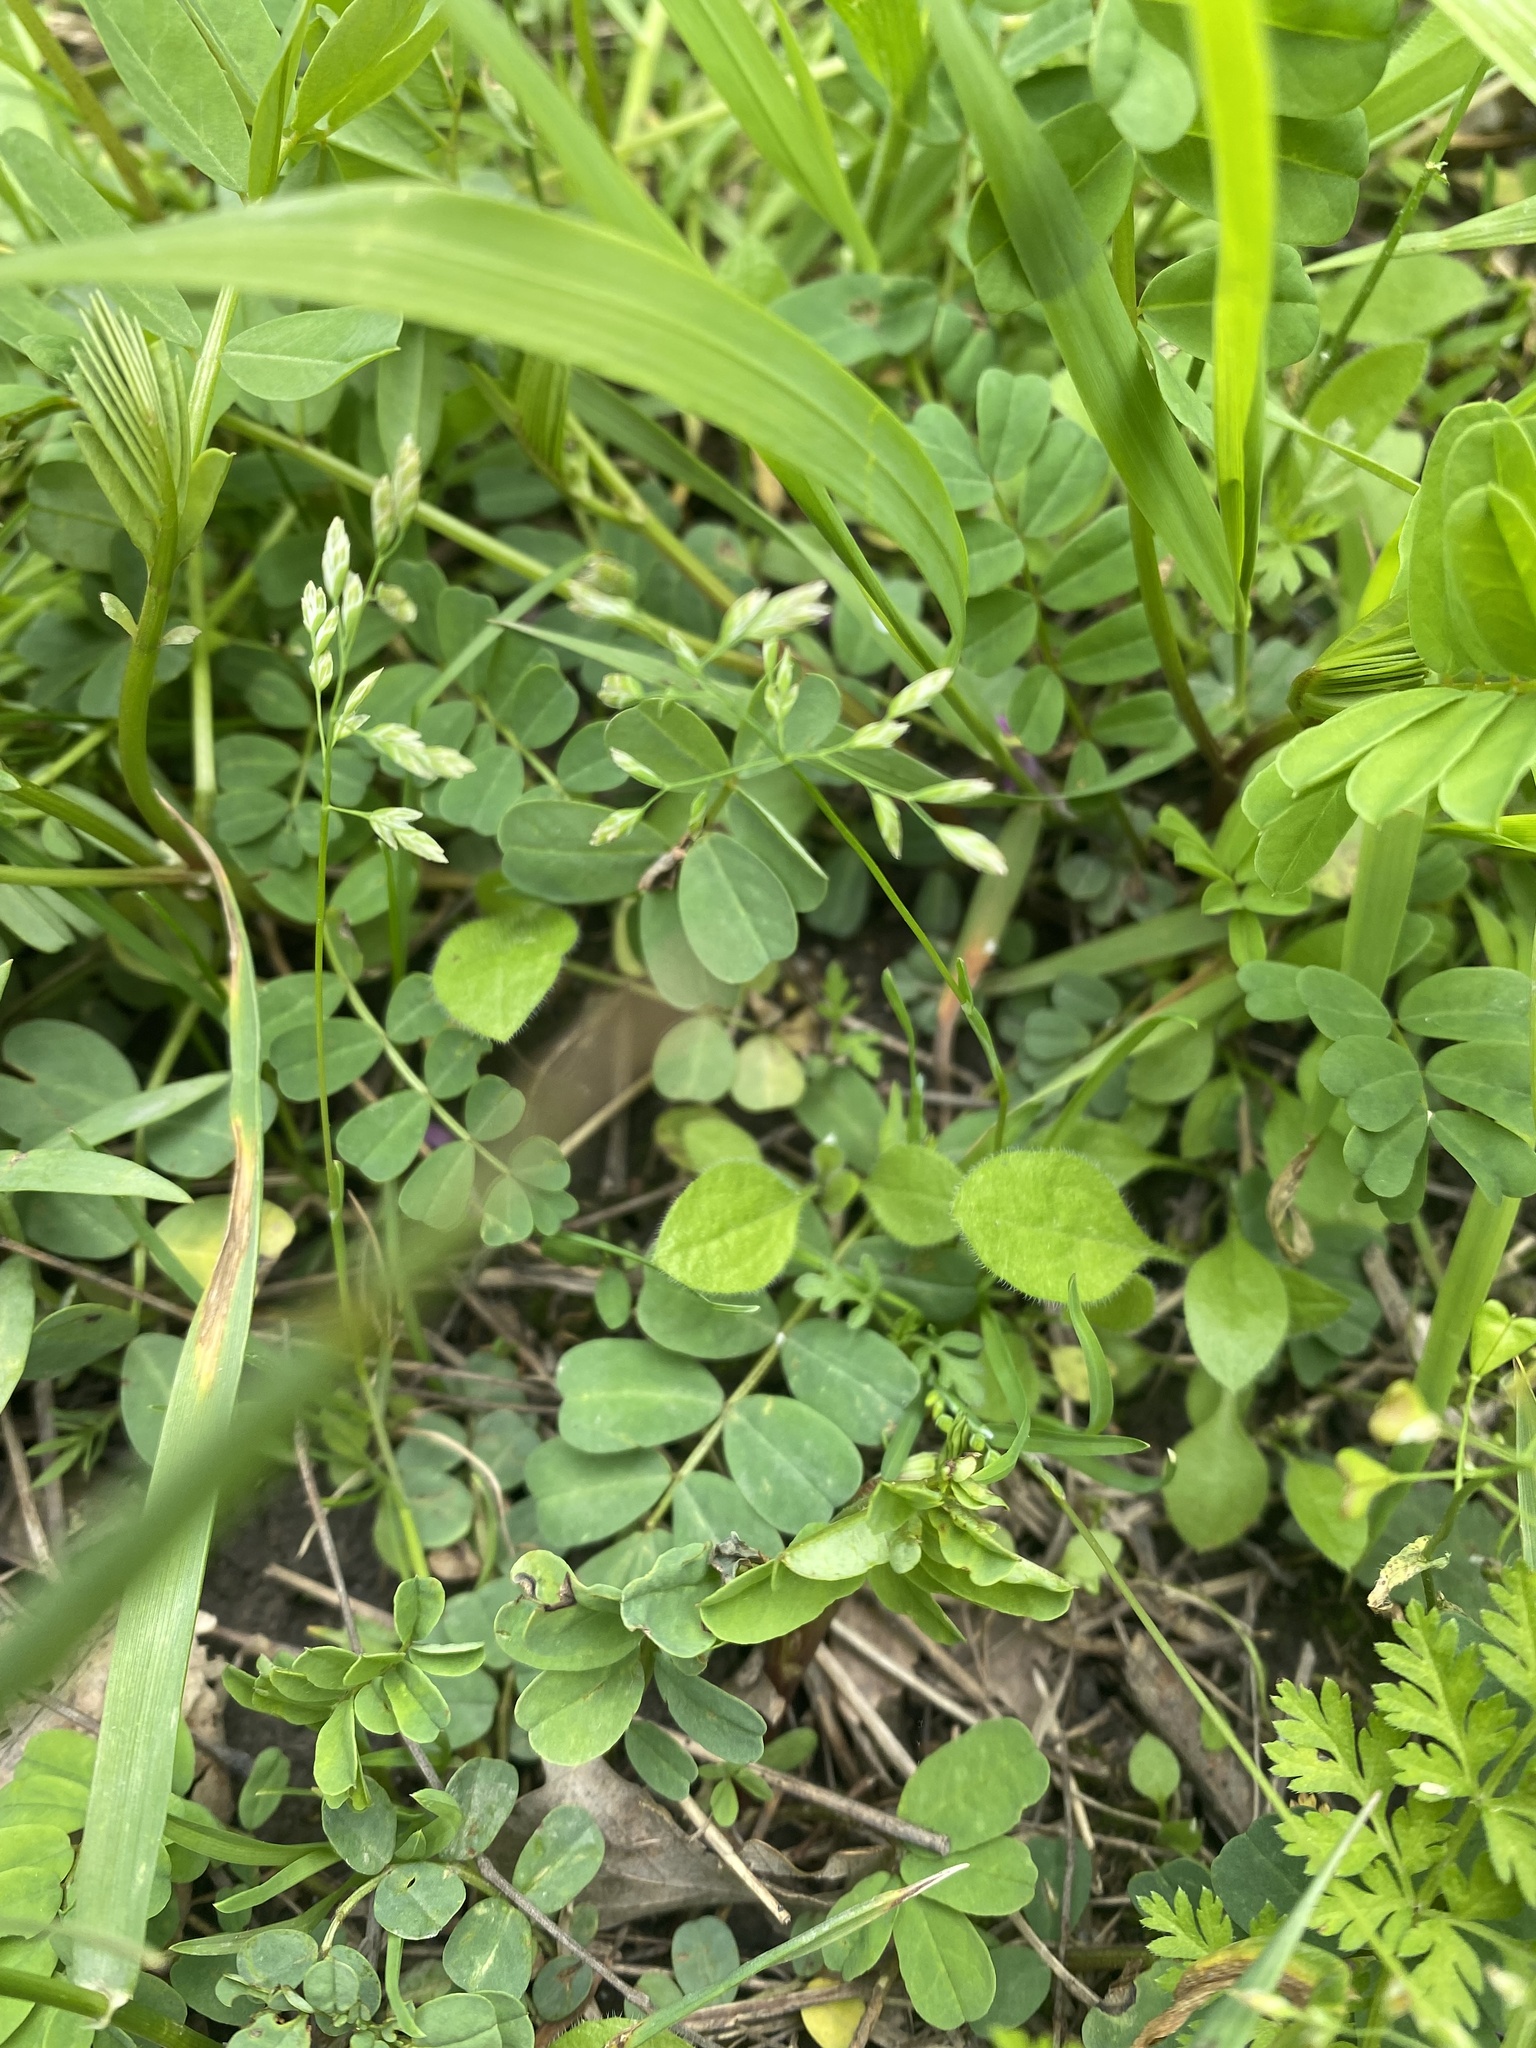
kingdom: Plantae
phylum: Tracheophyta
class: Liliopsida
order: Poales
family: Poaceae
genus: Poa
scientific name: Poa annua
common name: Annual bluegrass
